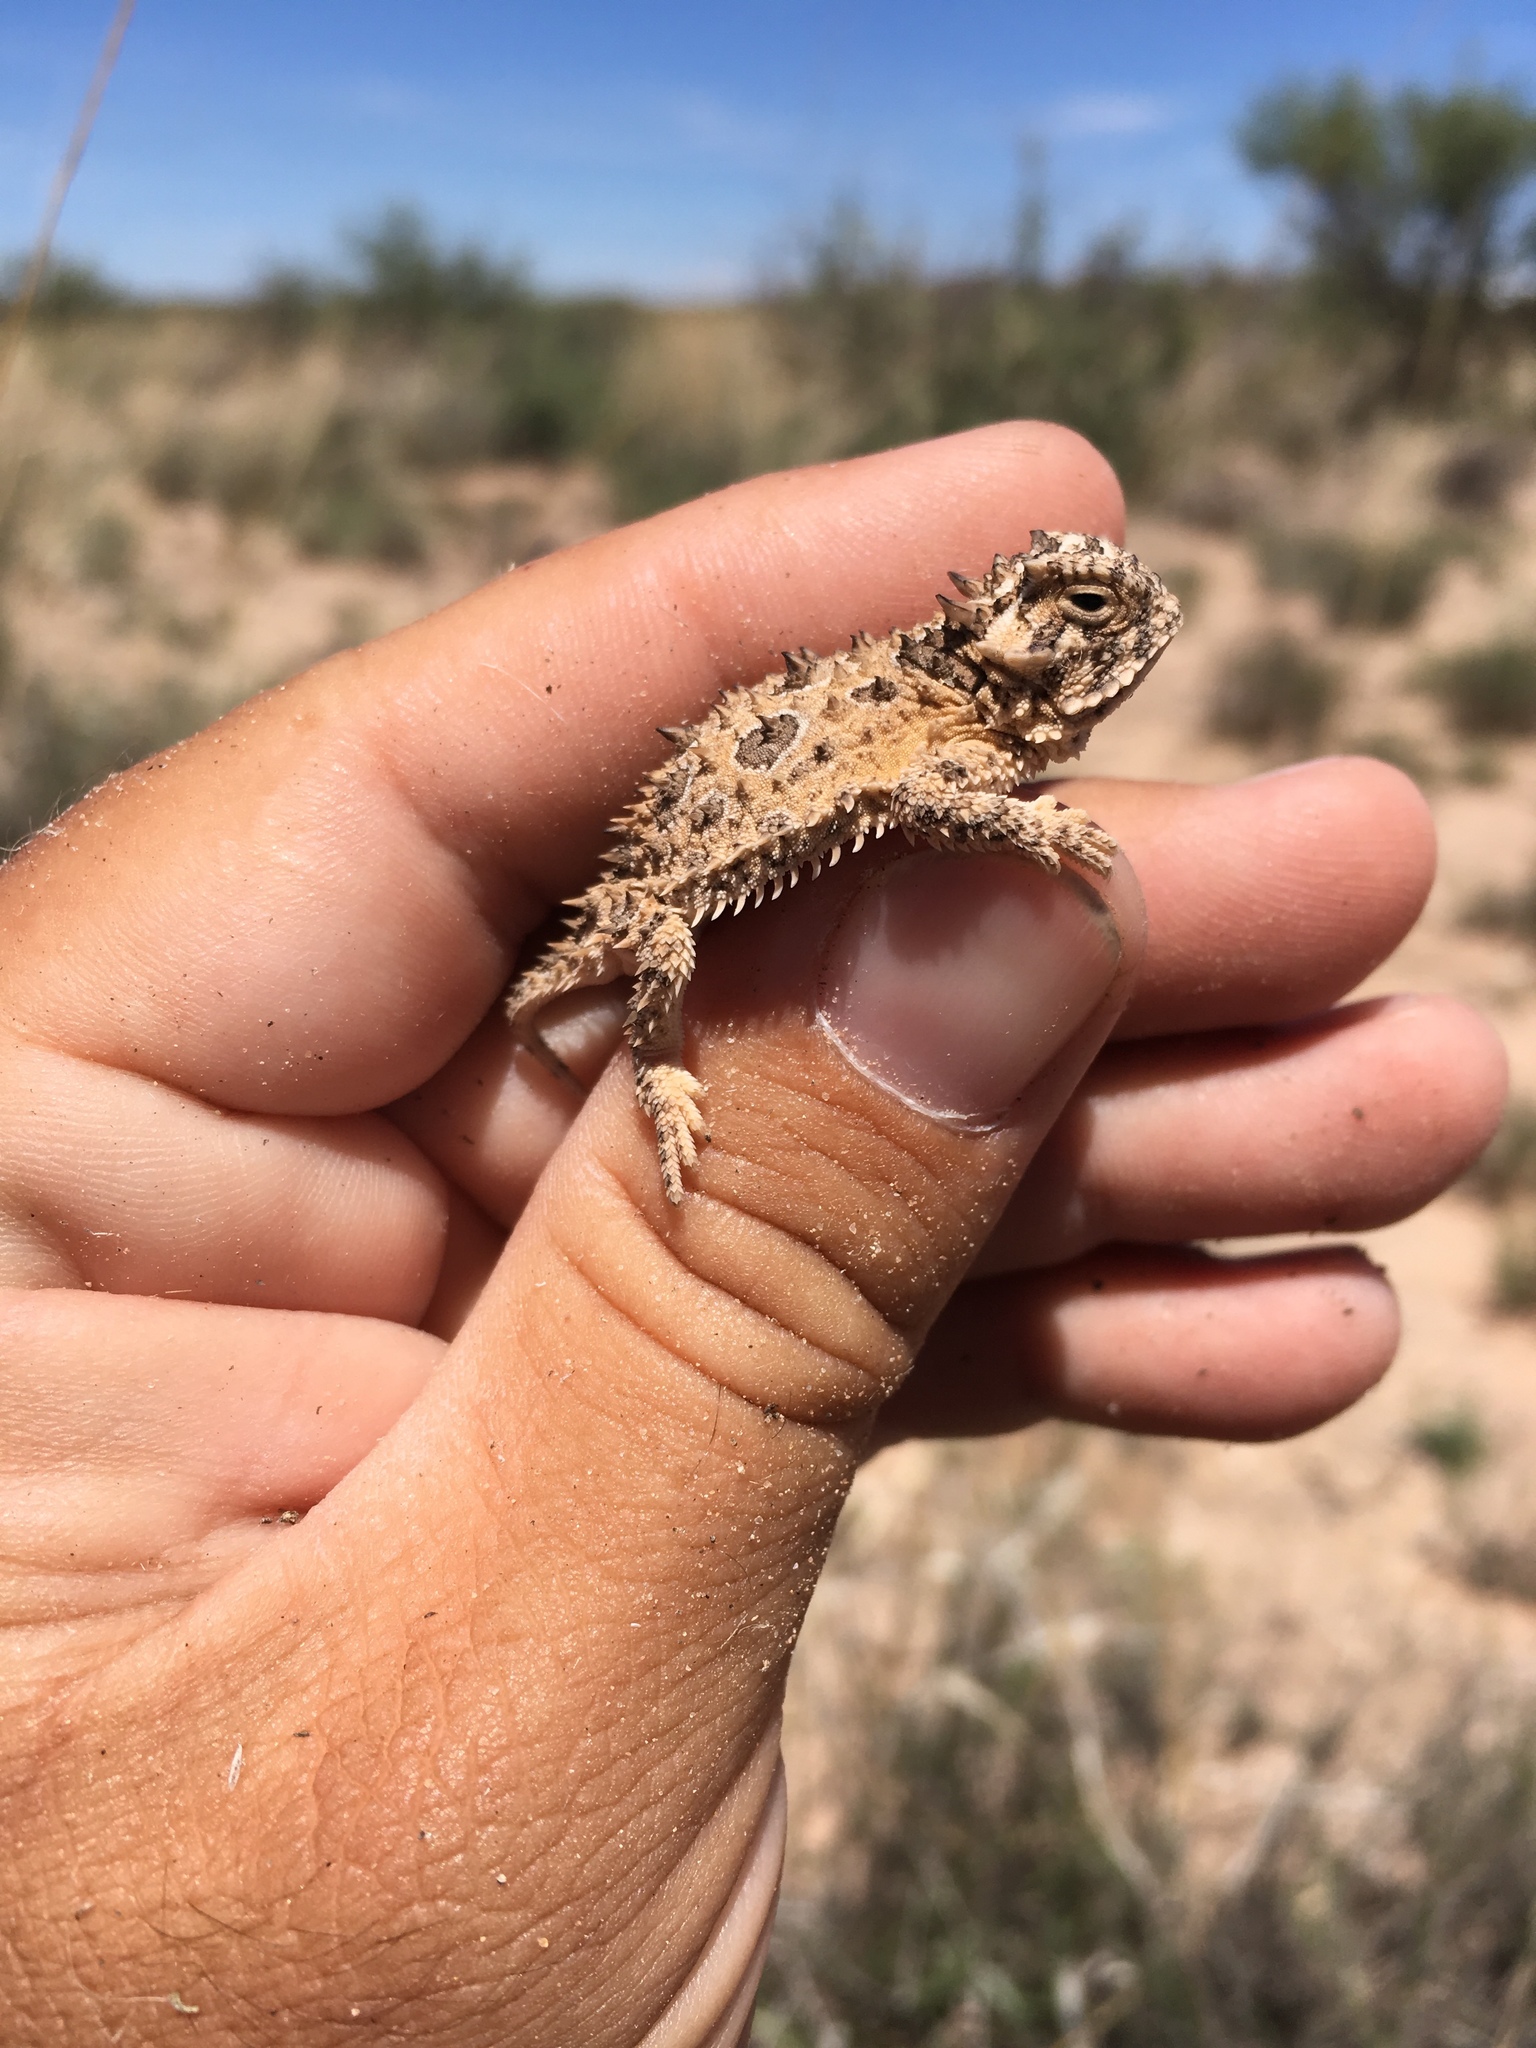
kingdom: Animalia
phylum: Chordata
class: Squamata
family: Phrynosomatidae
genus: Phrynosoma
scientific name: Phrynosoma cornutum
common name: Texas horned lizard
